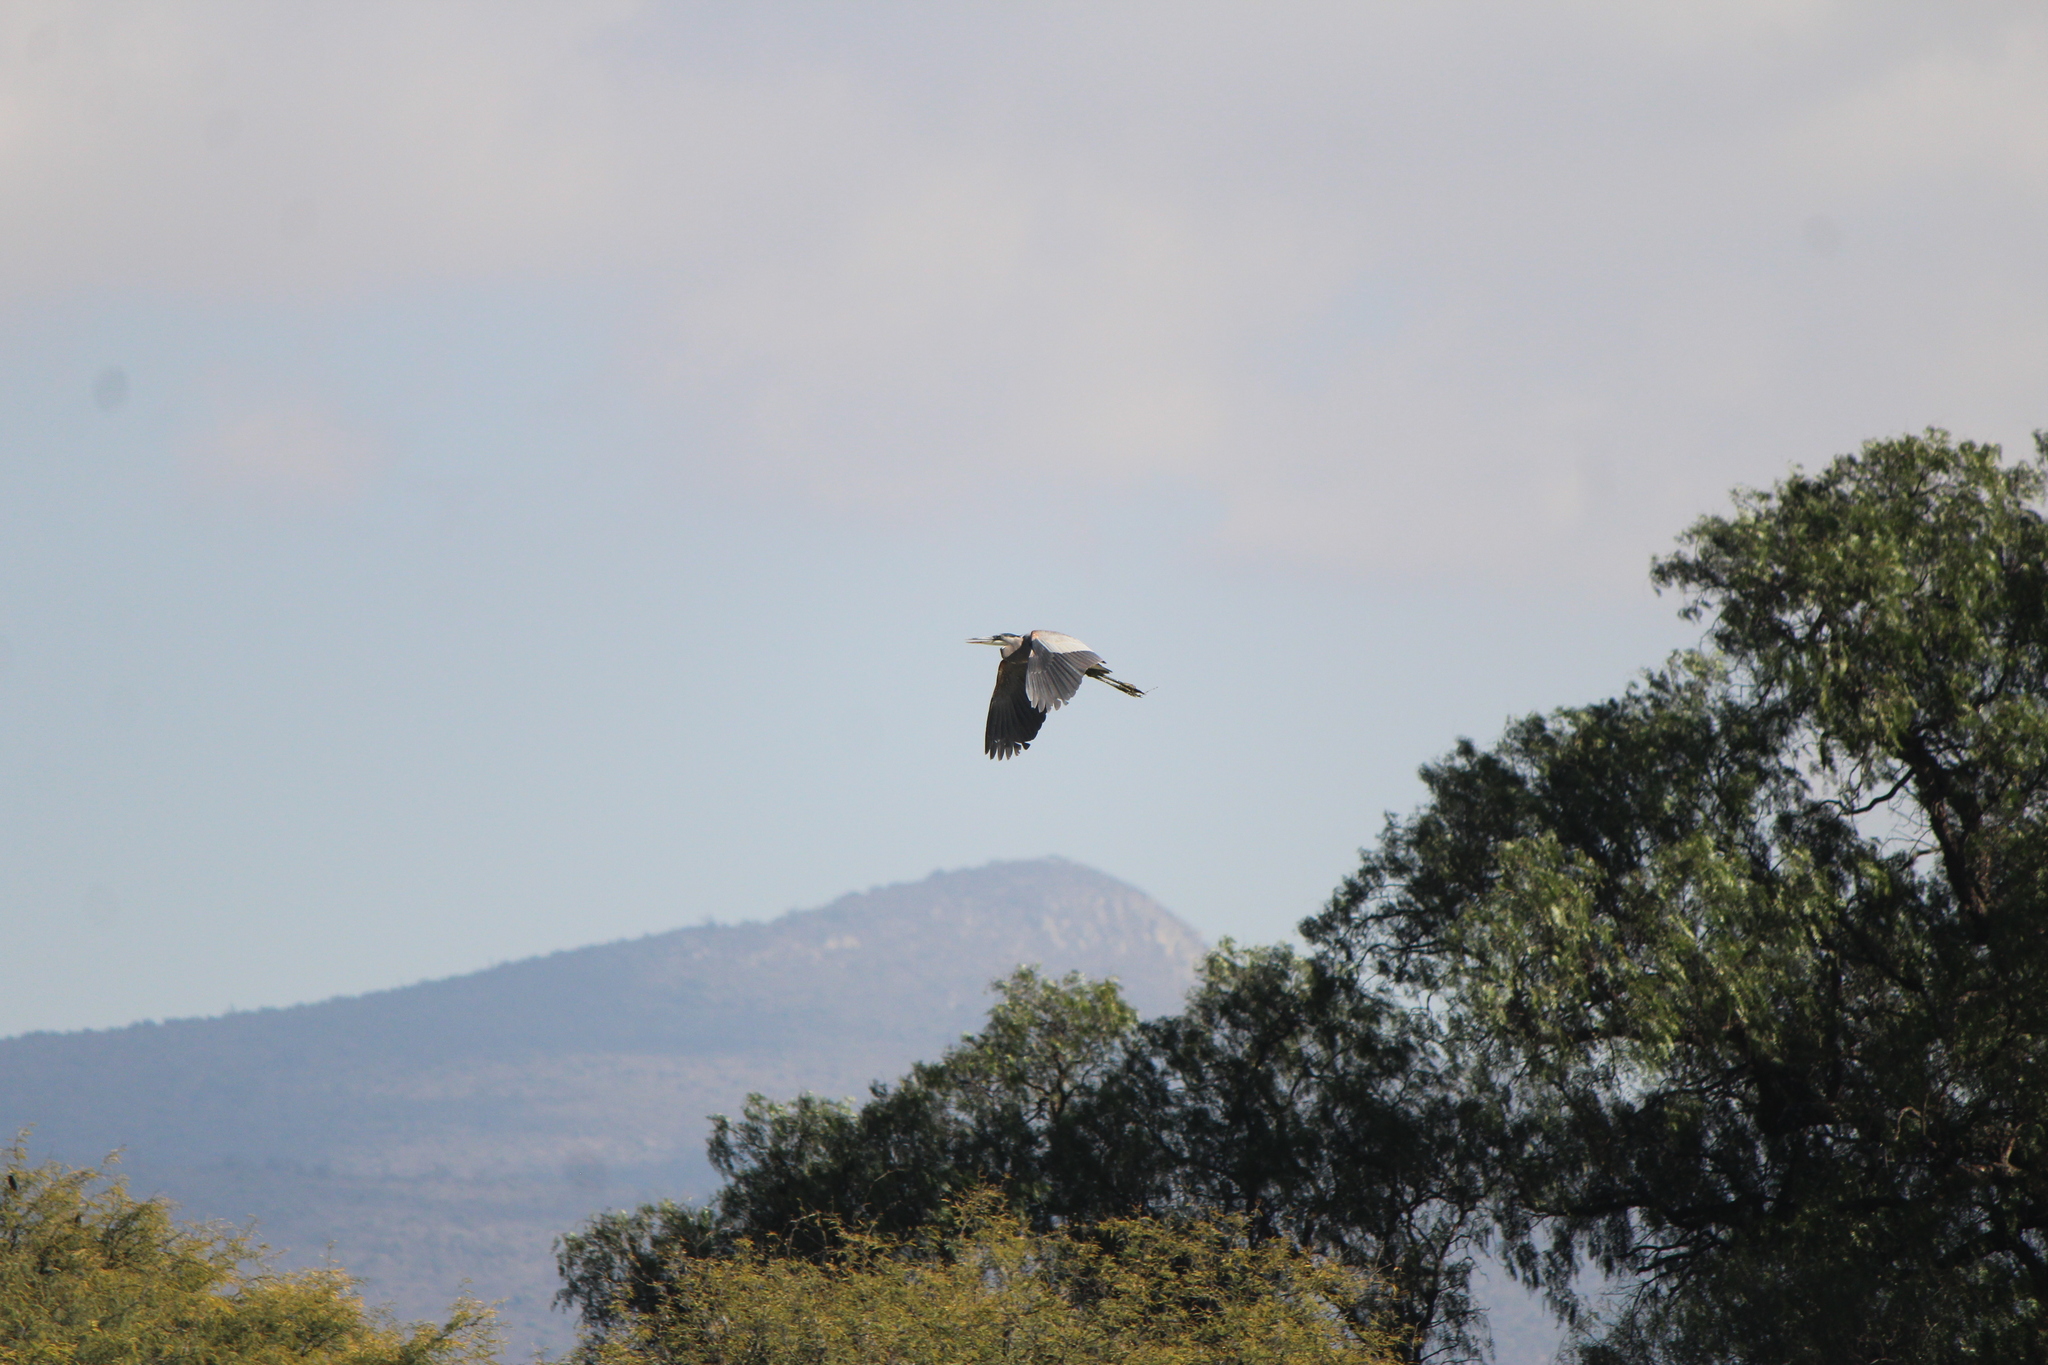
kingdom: Animalia
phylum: Chordata
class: Aves
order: Pelecaniformes
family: Ardeidae
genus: Ardea
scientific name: Ardea herodias
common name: Great blue heron
